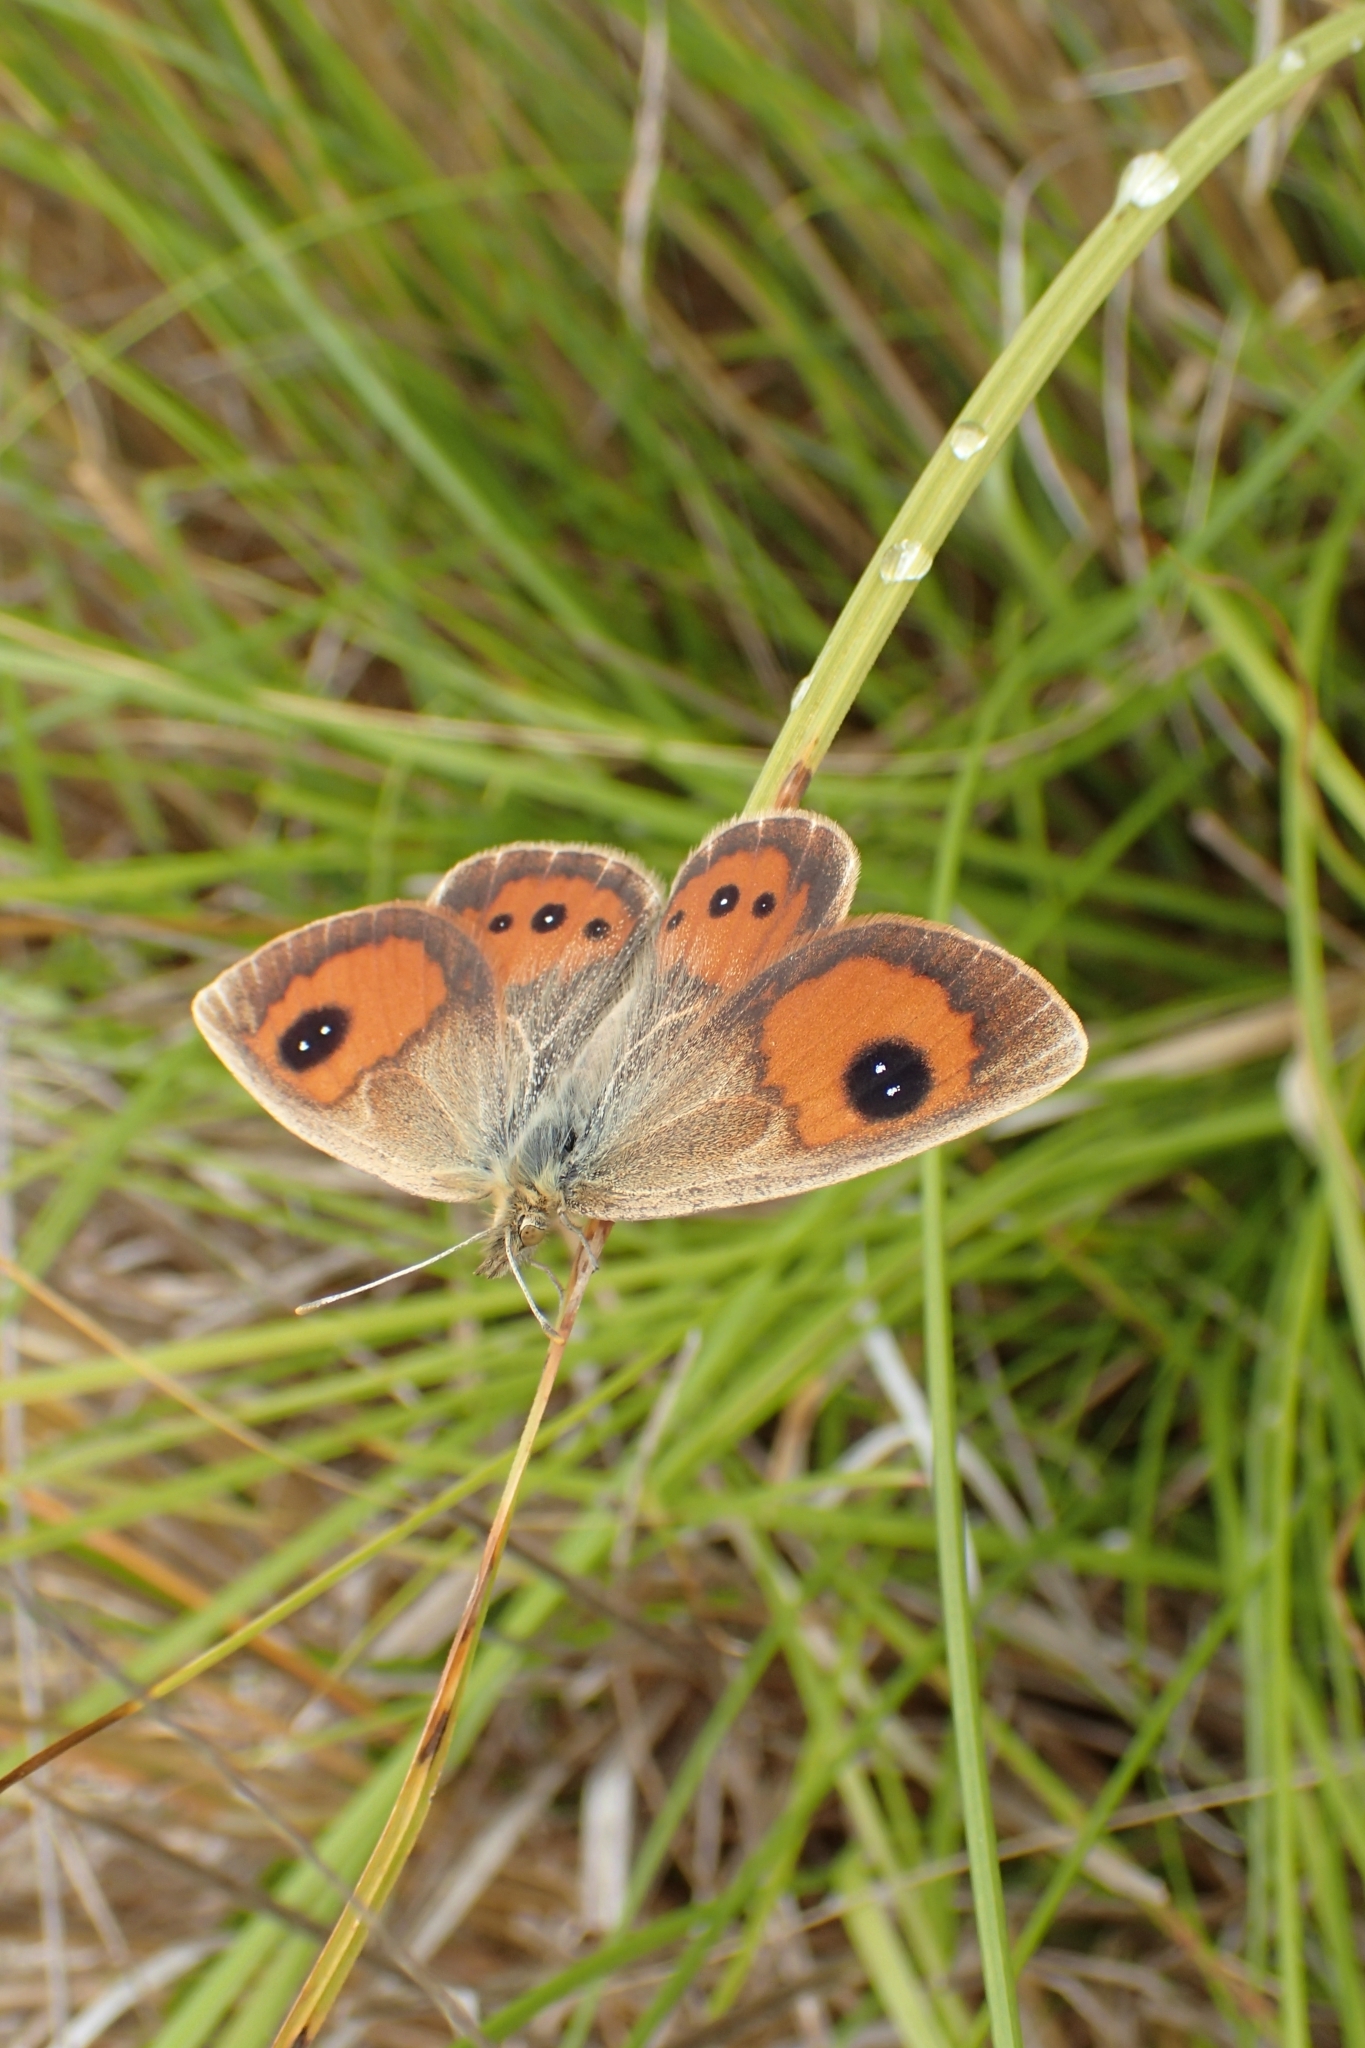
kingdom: Animalia
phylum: Arthropoda
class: Insecta
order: Lepidoptera
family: Nymphalidae
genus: Argyrophenga
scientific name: Argyrophenga antipodum
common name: Common tussock butterfly
